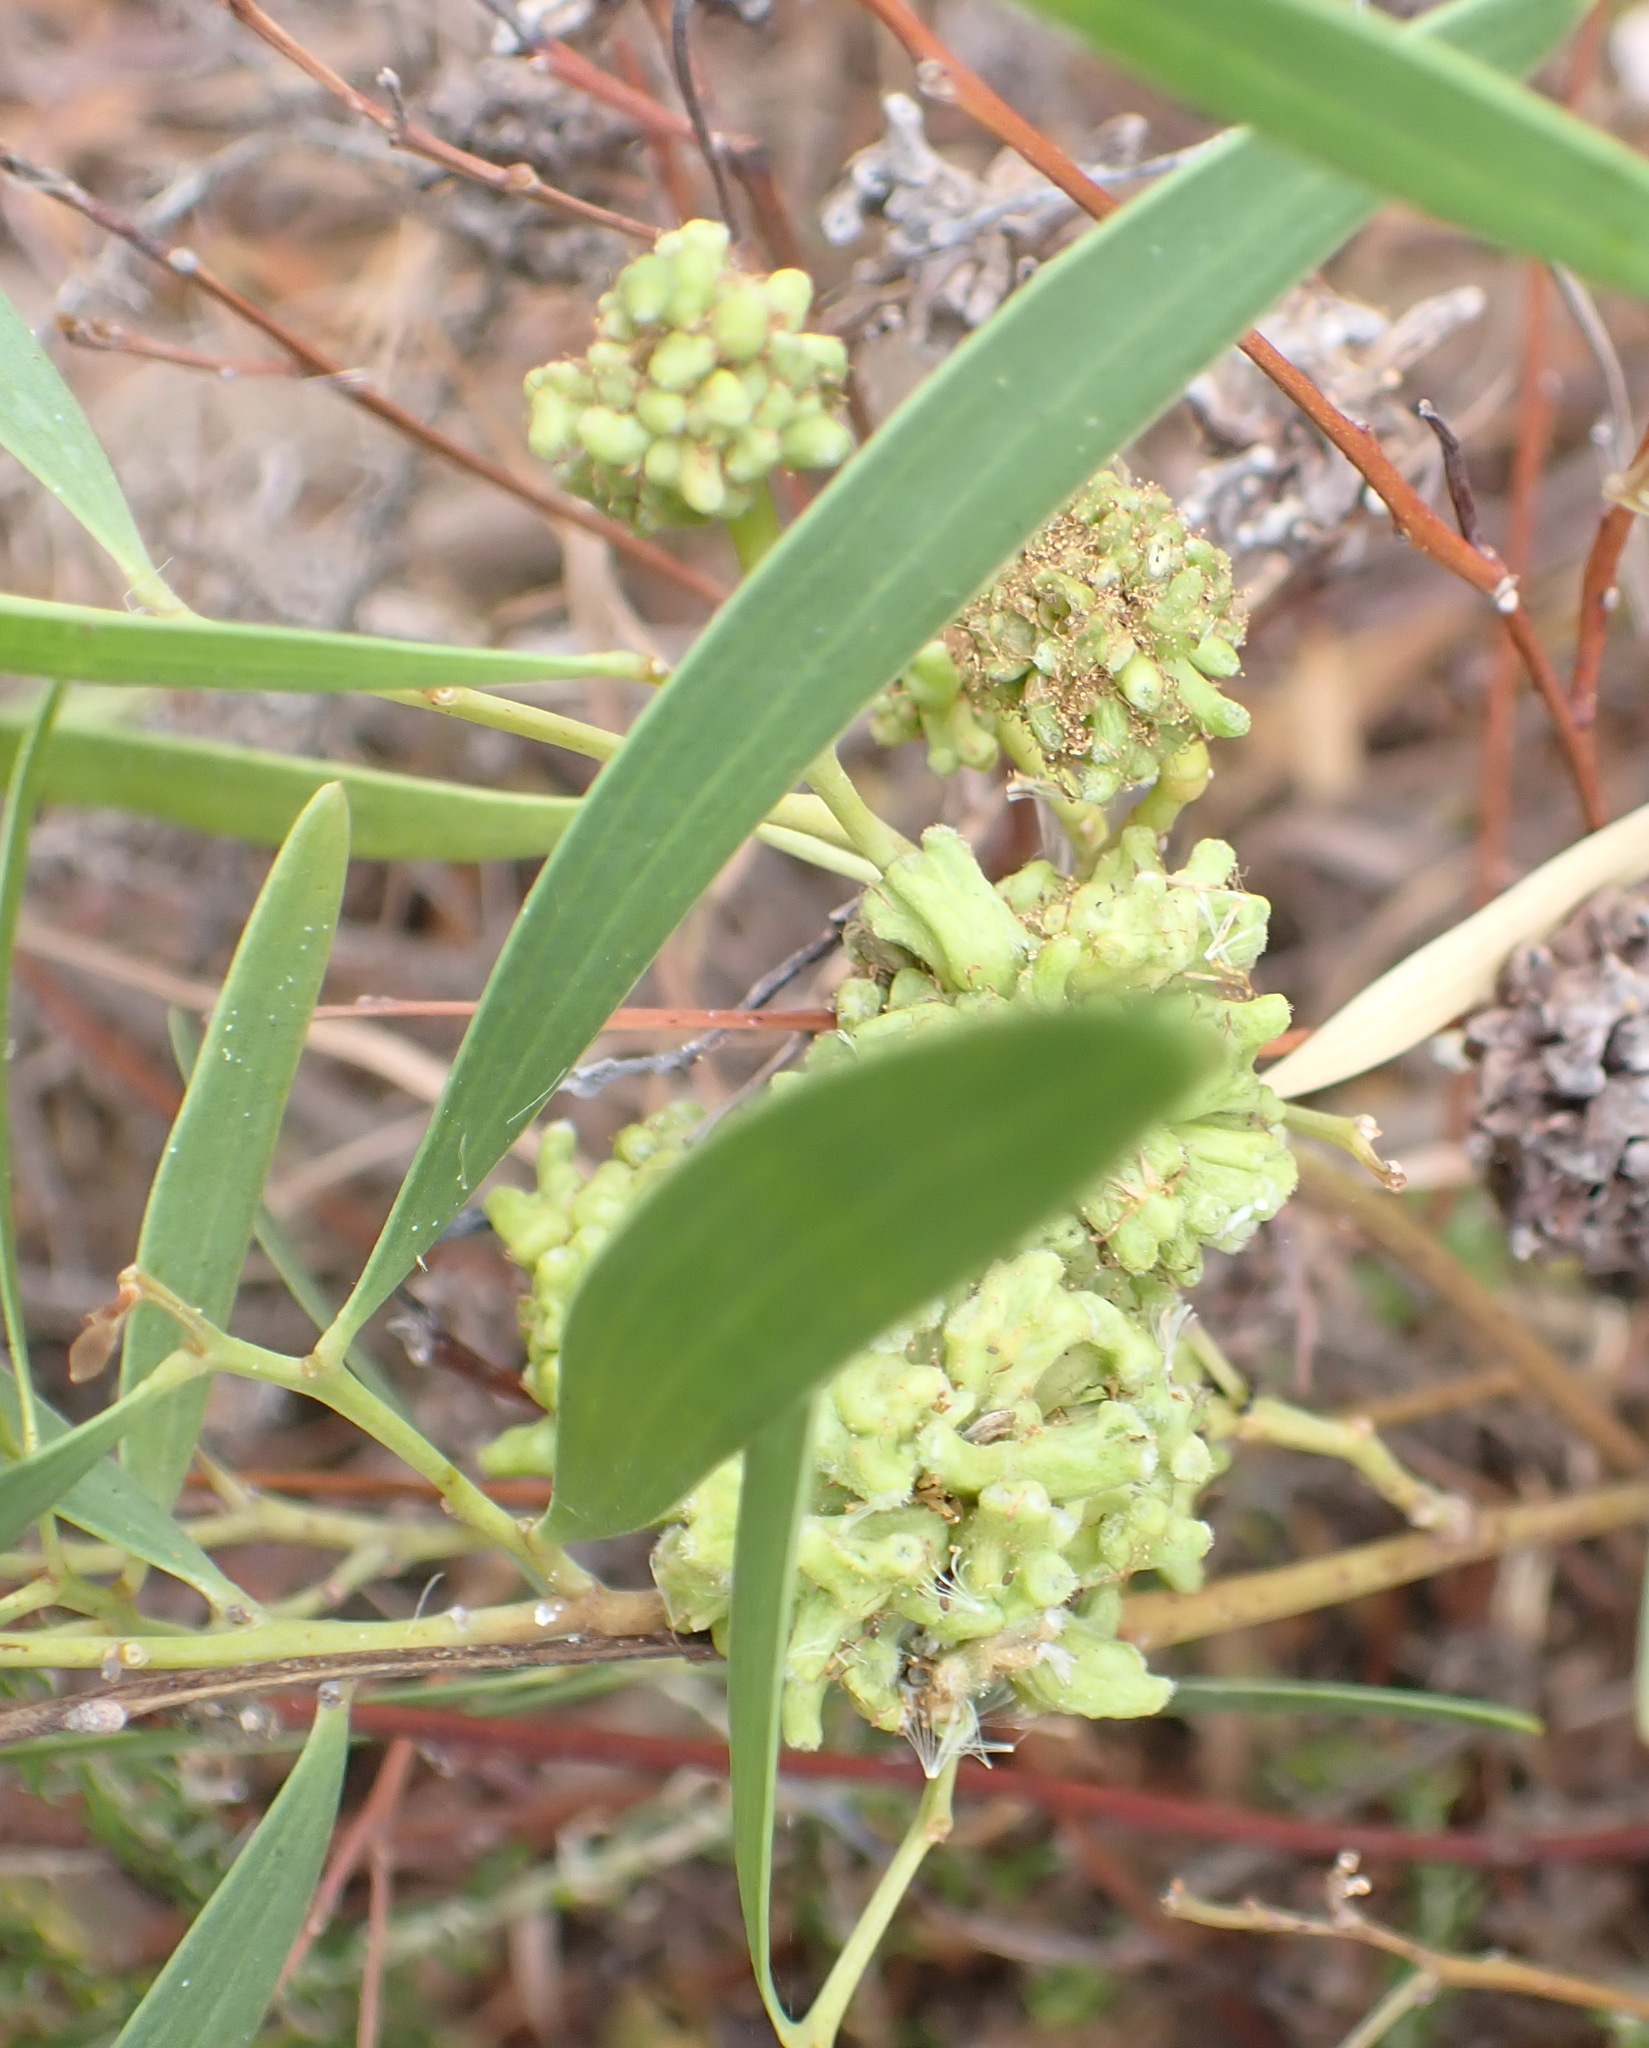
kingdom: Animalia
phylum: Arthropoda
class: Insecta
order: Diptera
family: Cecidomyiidae
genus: Dasineura
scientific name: Dasineura dielsi
